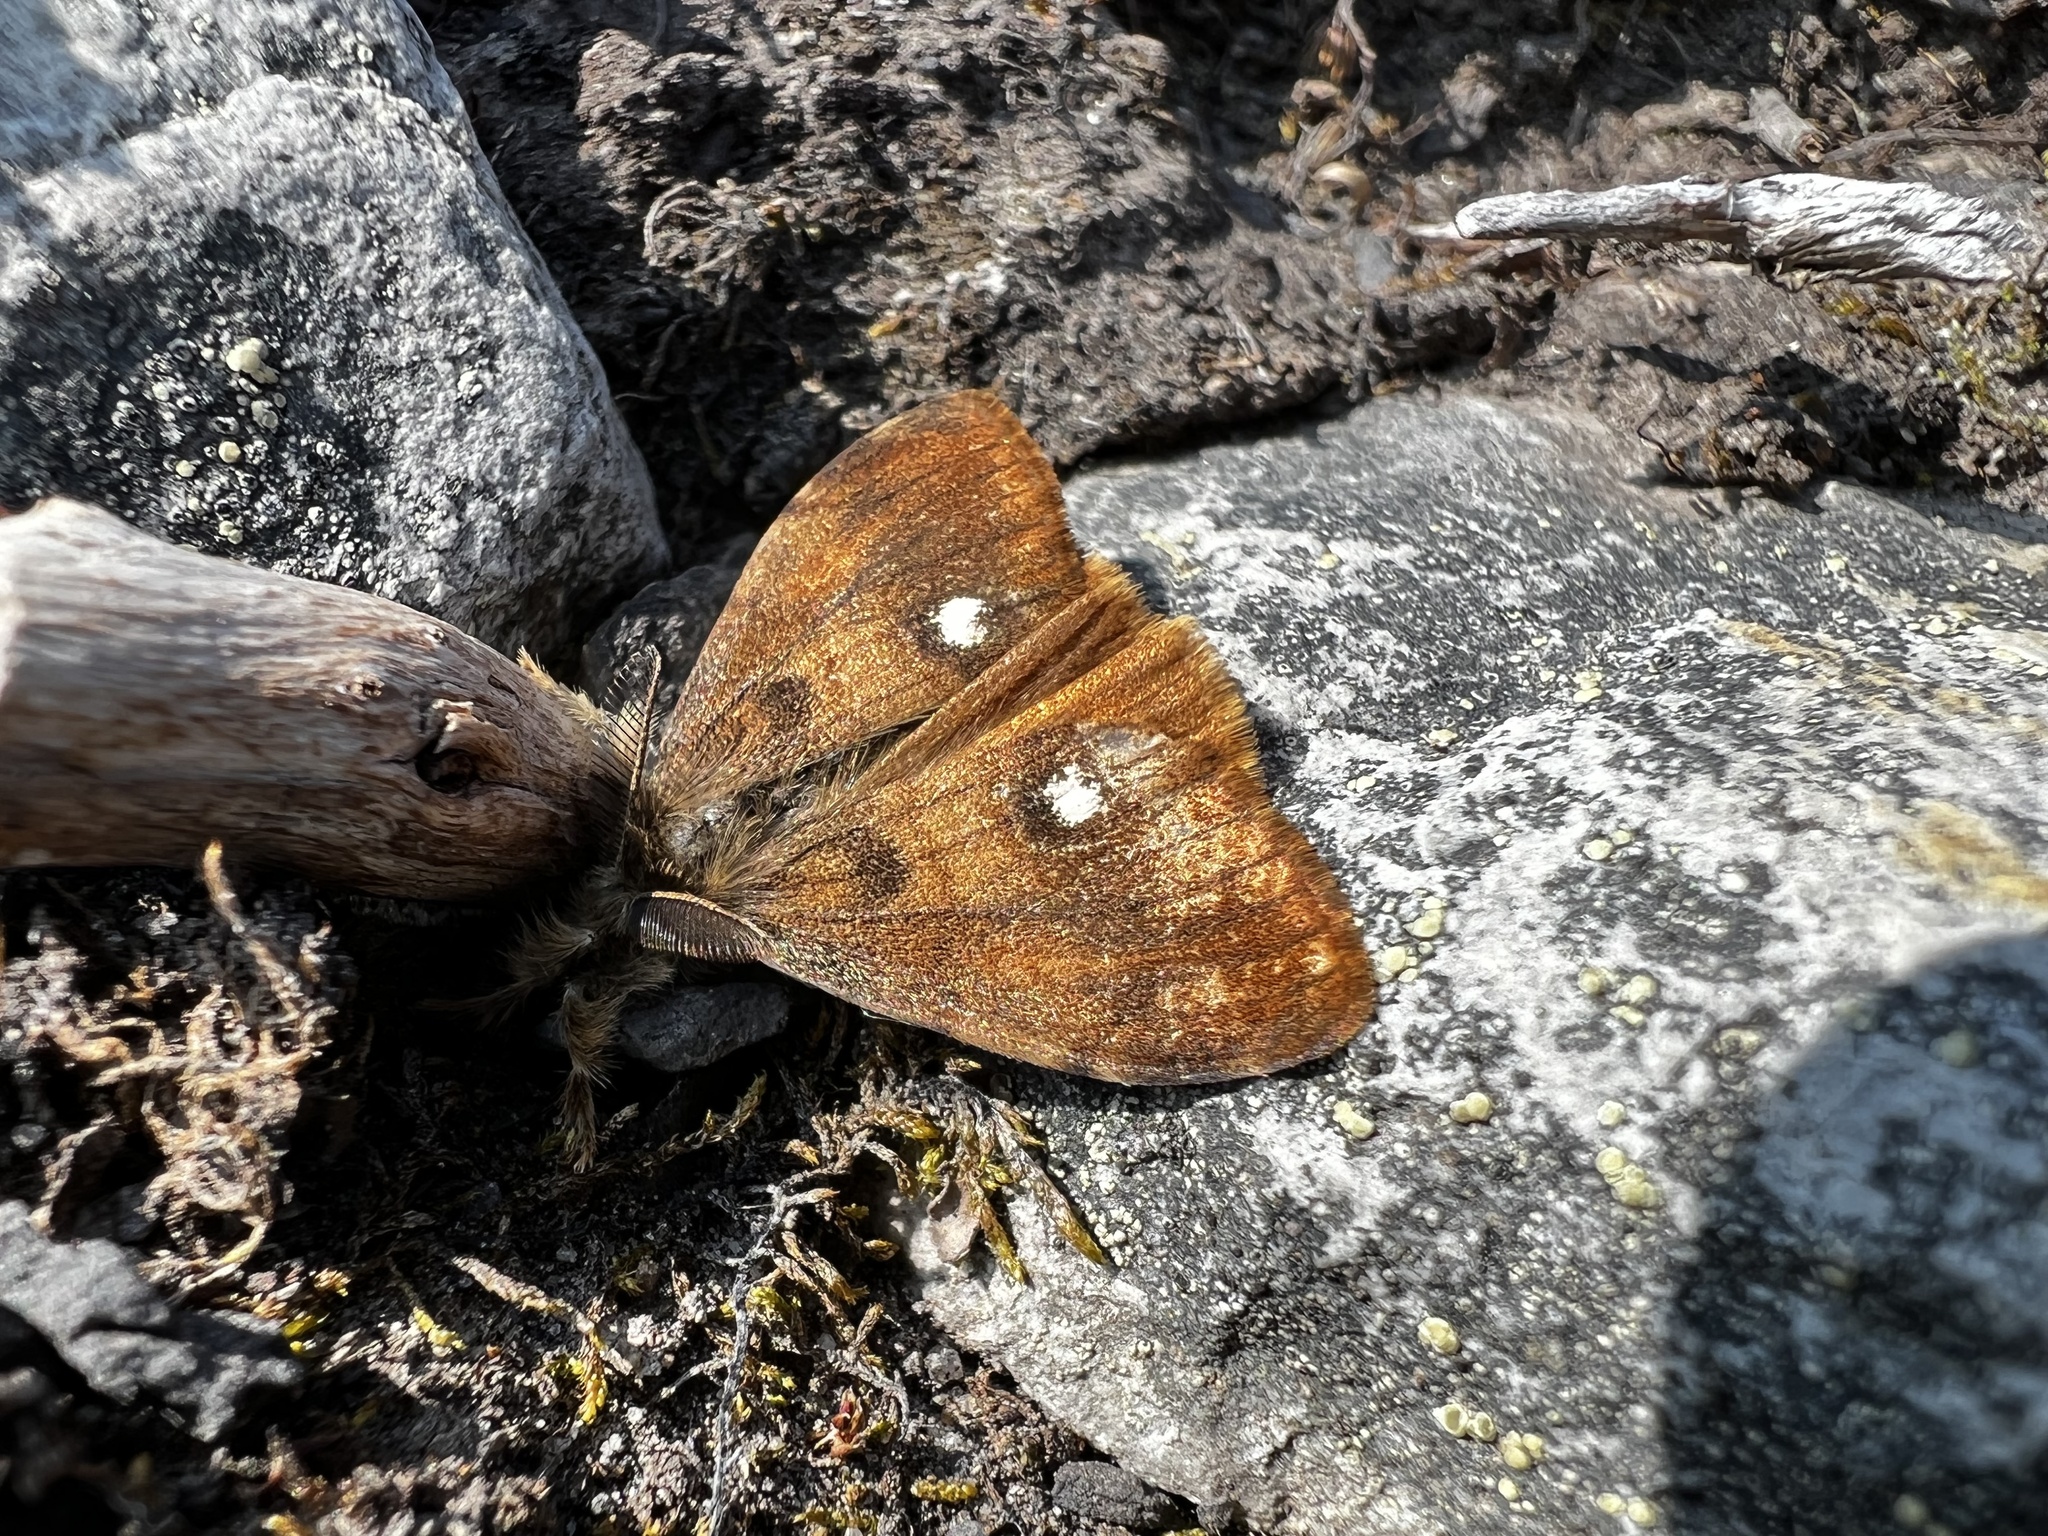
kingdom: Animalia
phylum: Arthropoda
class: Insecta
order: Lepidoptera
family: Erebidae
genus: Orgyia
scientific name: Orgyia antiqua
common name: Vapourer
